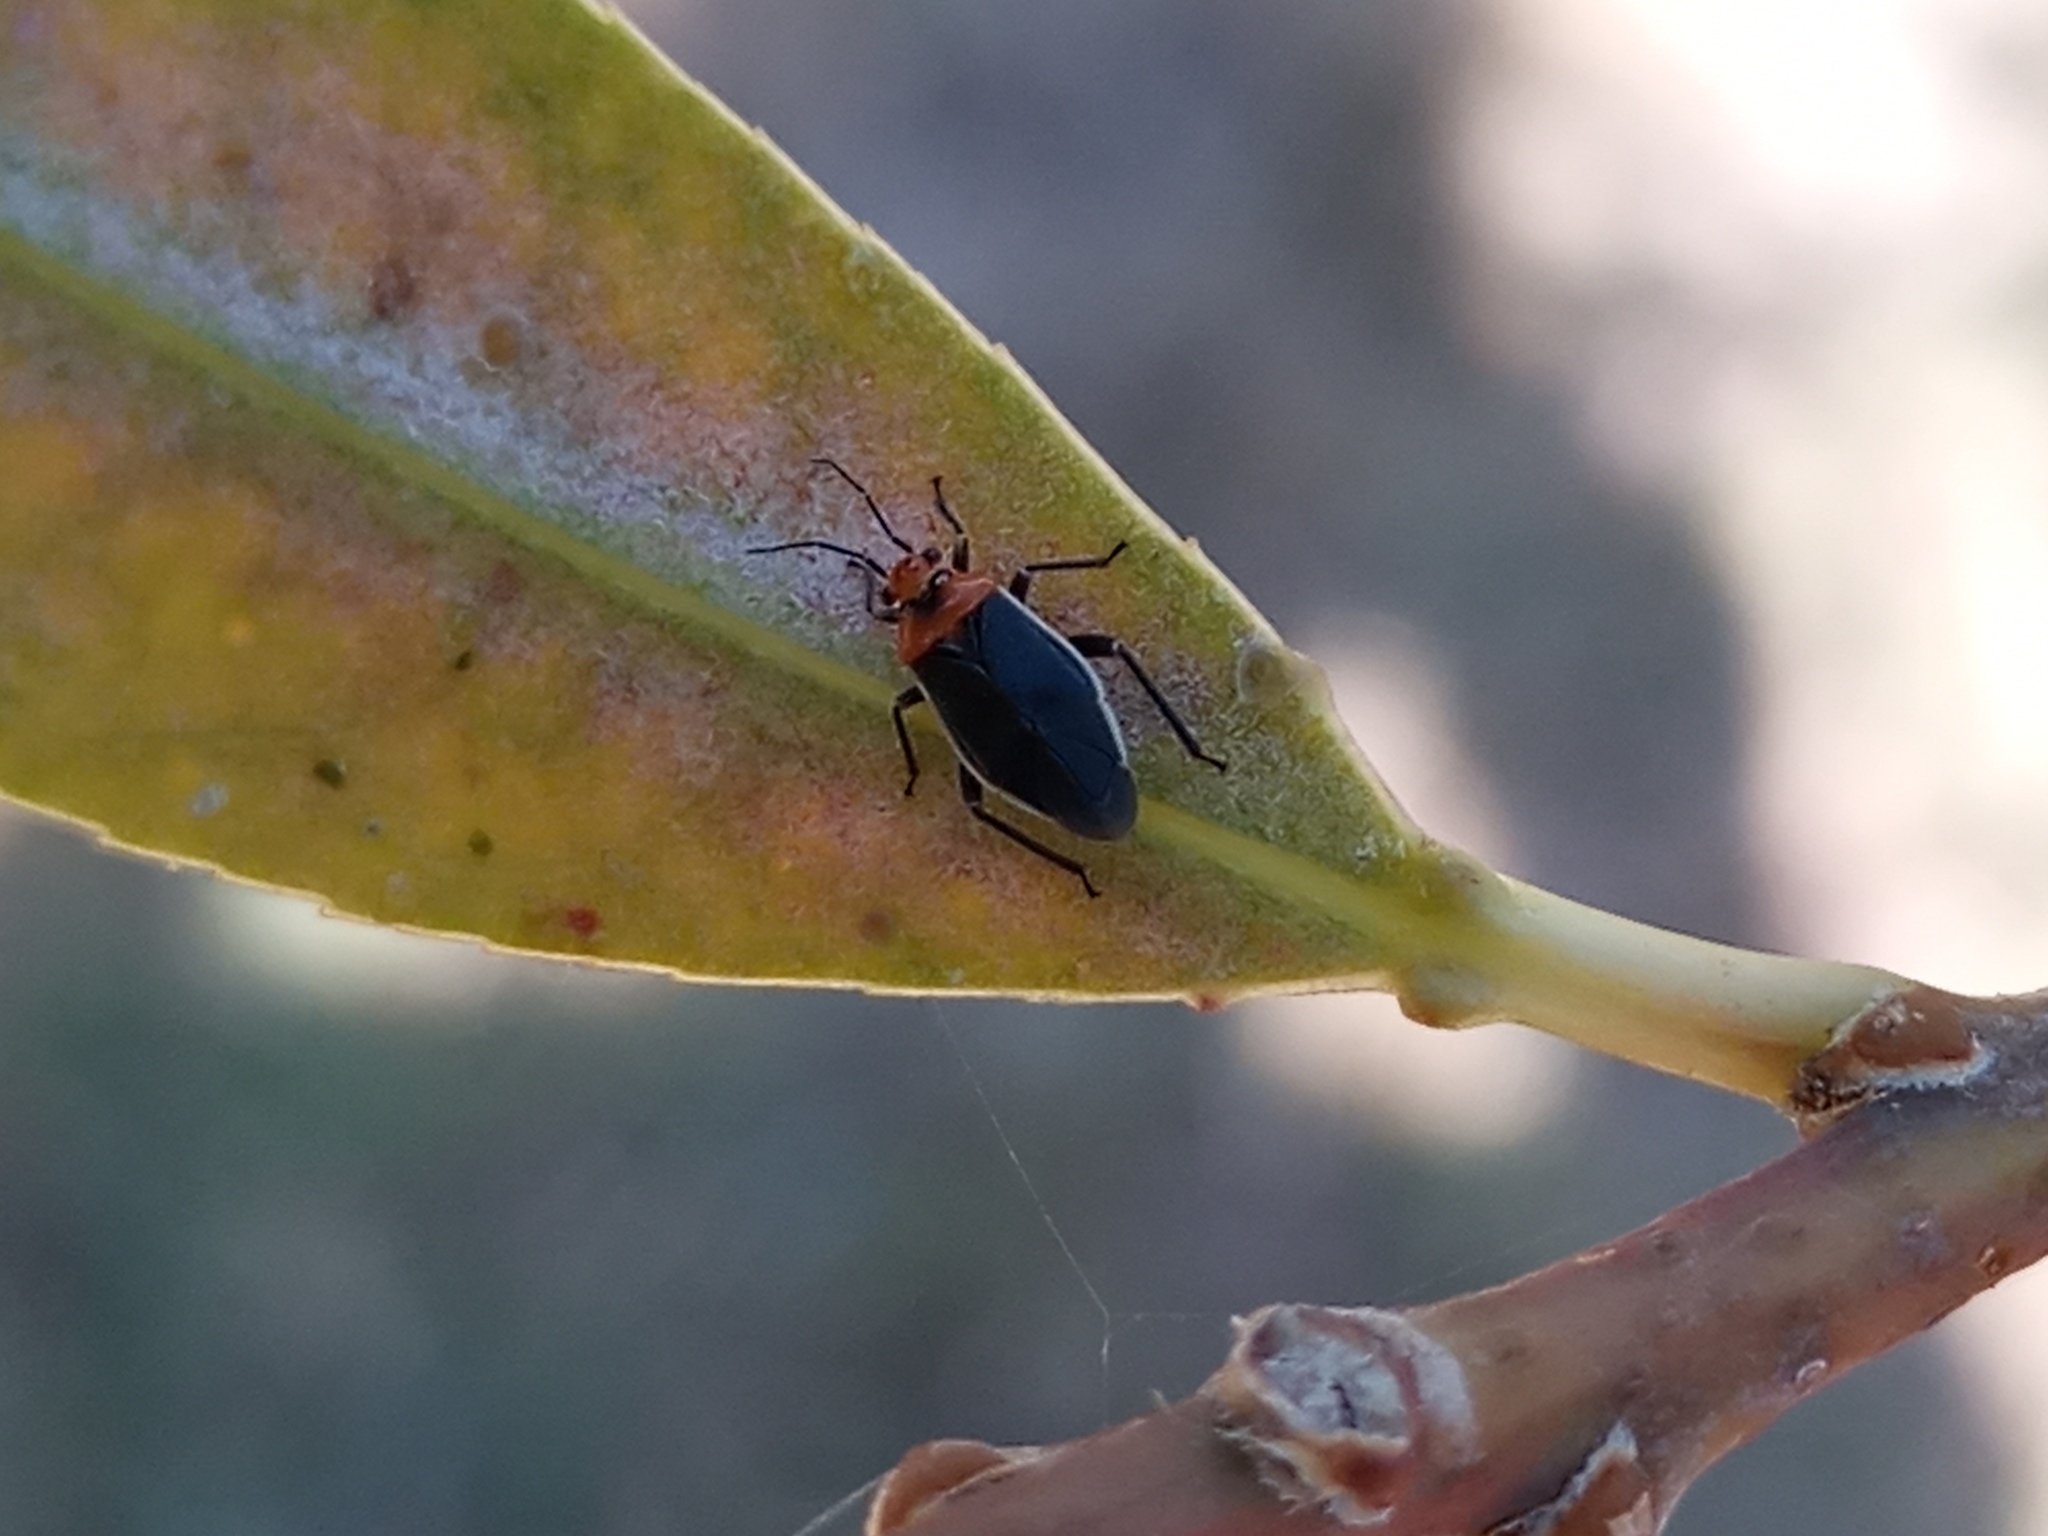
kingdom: Animalia
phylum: Arthropoda
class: Insecta
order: Hemiptera
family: Miridae
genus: Aspidobothrys
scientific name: Aspidobothrys ruficeps
